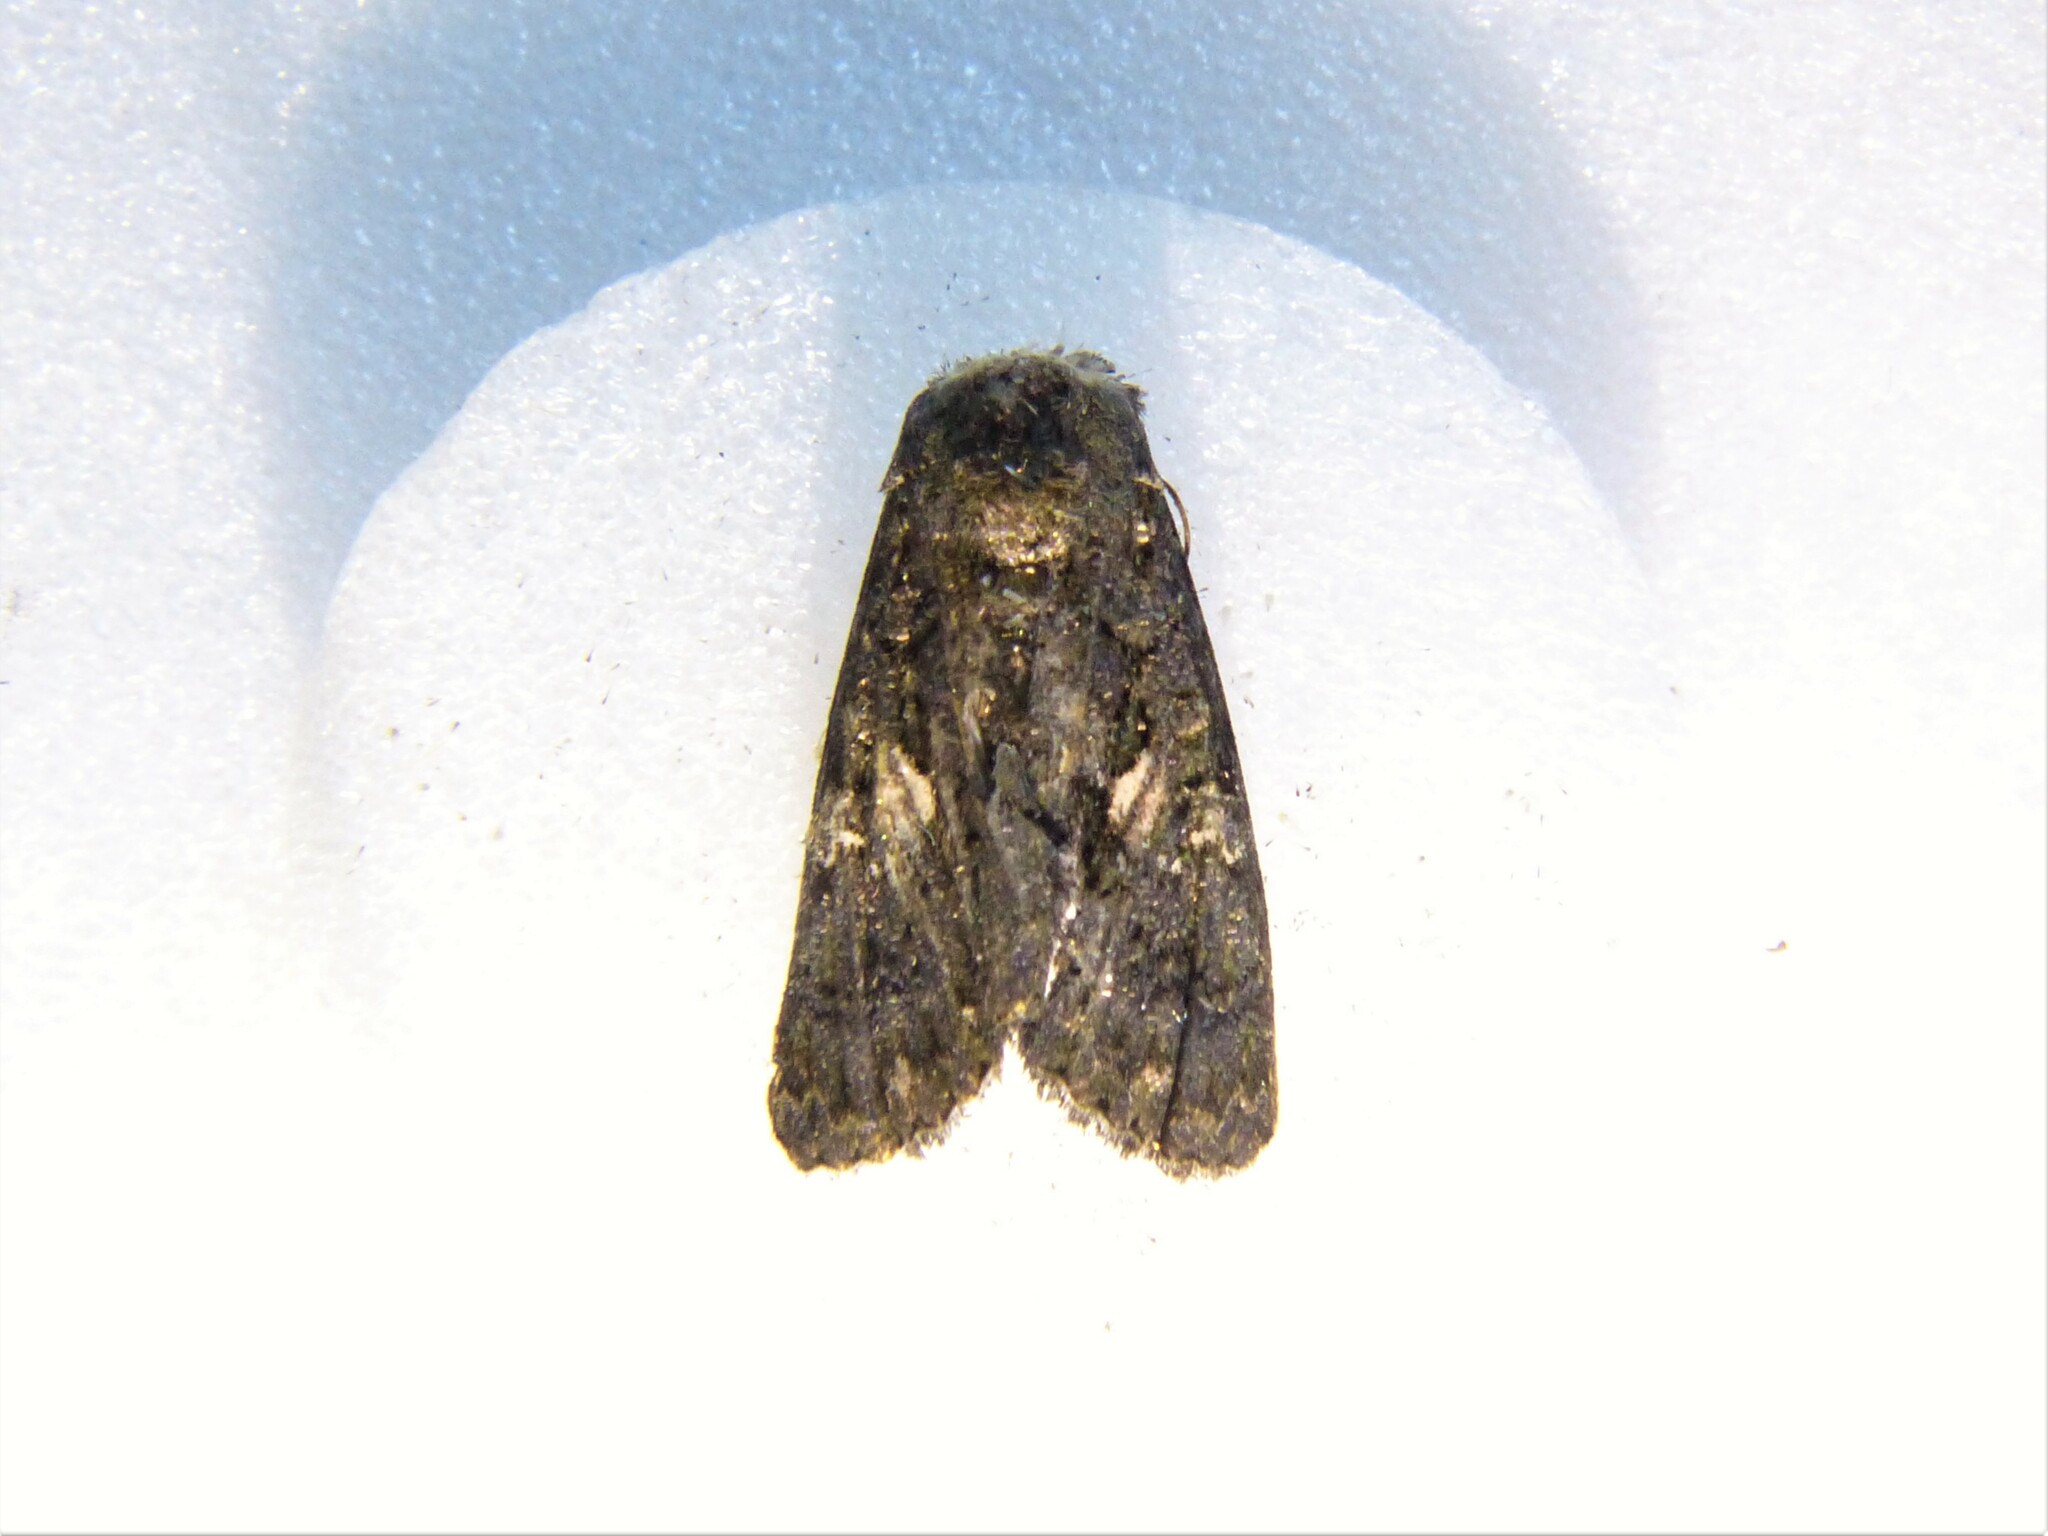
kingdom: Animalia
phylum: Arthropoda
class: Insecta
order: Lepidoptera
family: Noctuidae
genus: Aedia
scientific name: Aedia leucomelas
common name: Sorcerer
